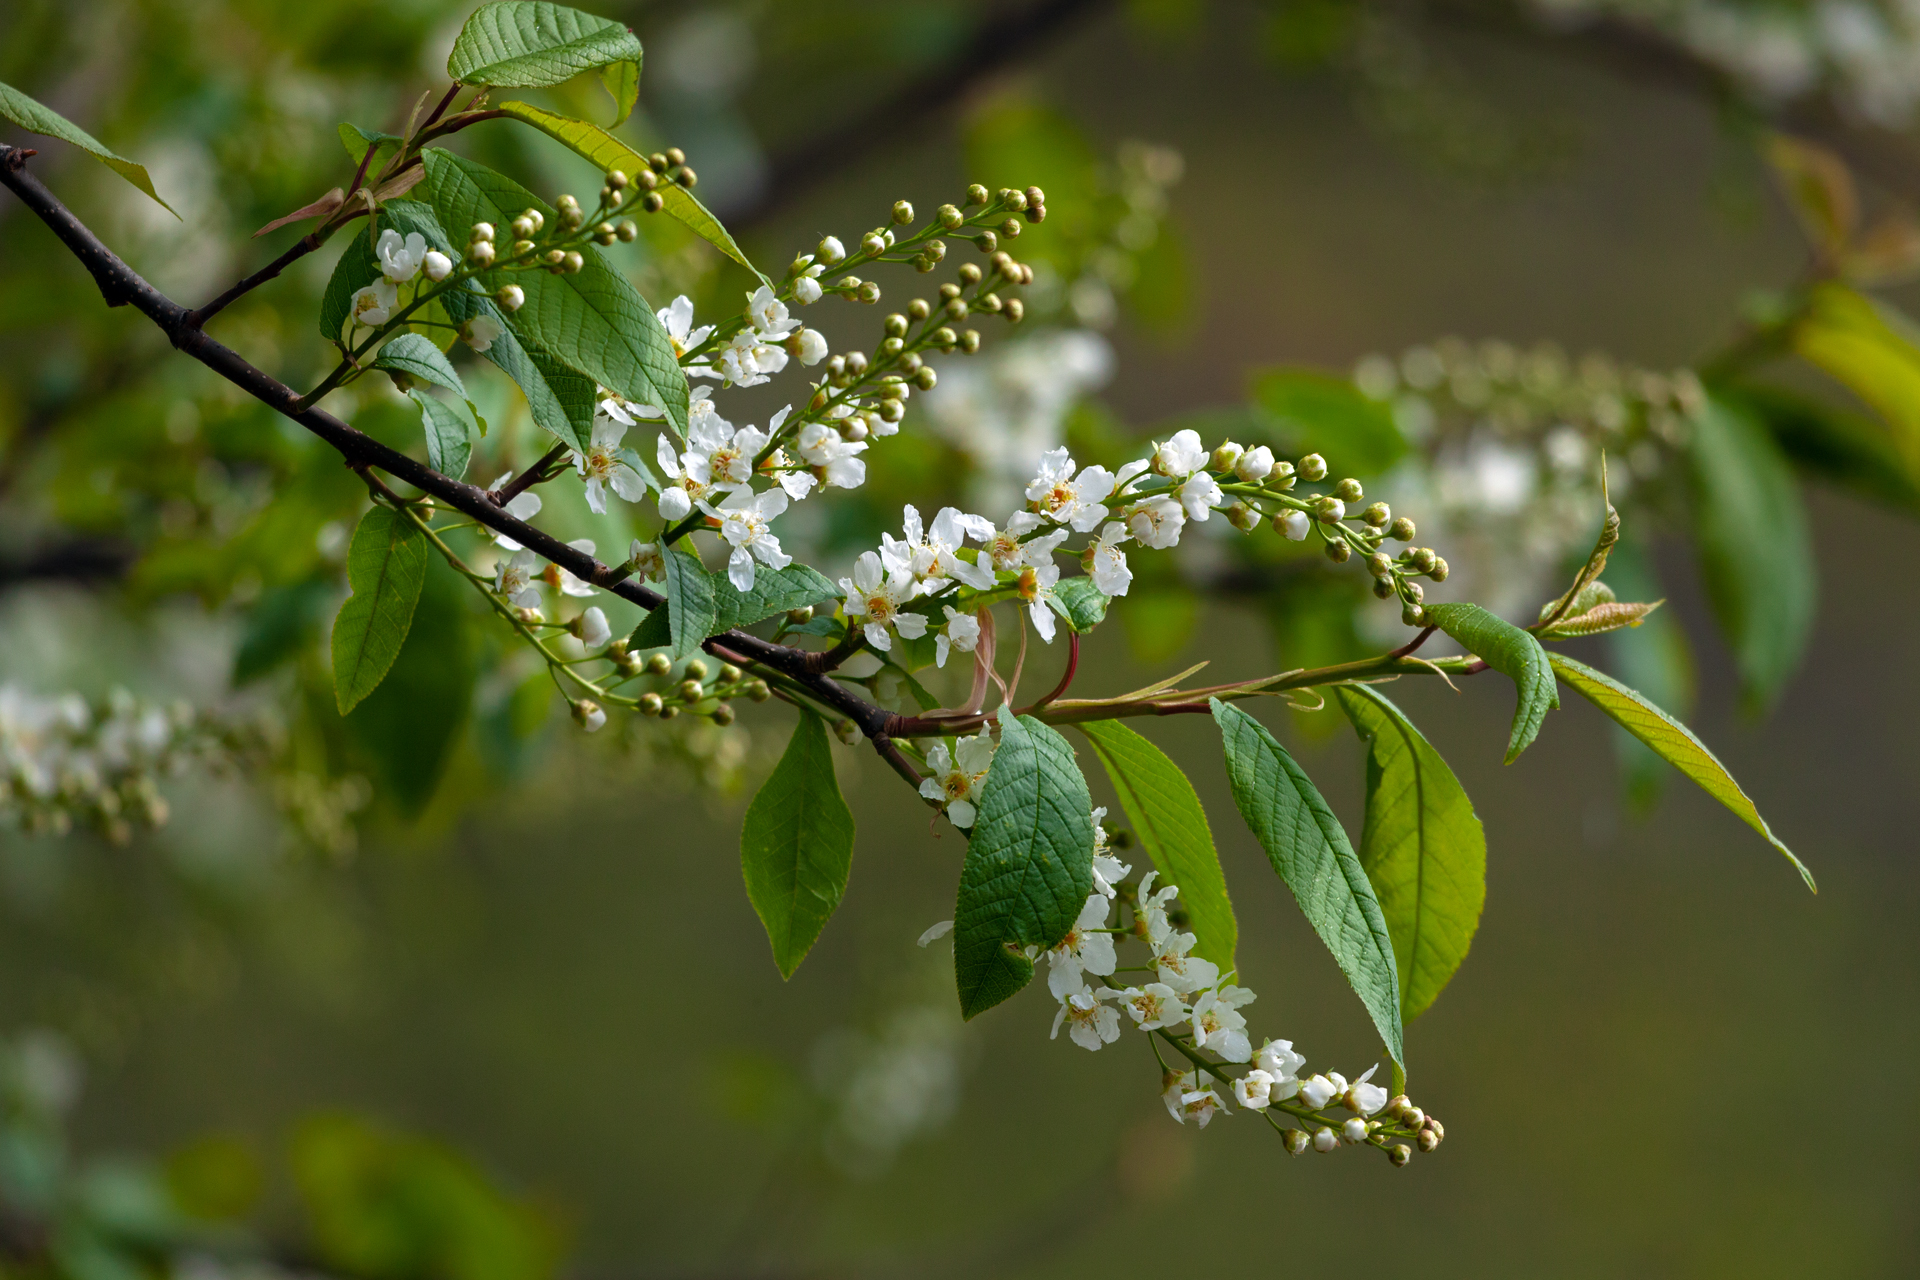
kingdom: Plantae
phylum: Tracheophyta
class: Magnoliopsida
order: Rosales
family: Rosaceae
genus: Prunus
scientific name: Prunus padus
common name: Bird cherry
